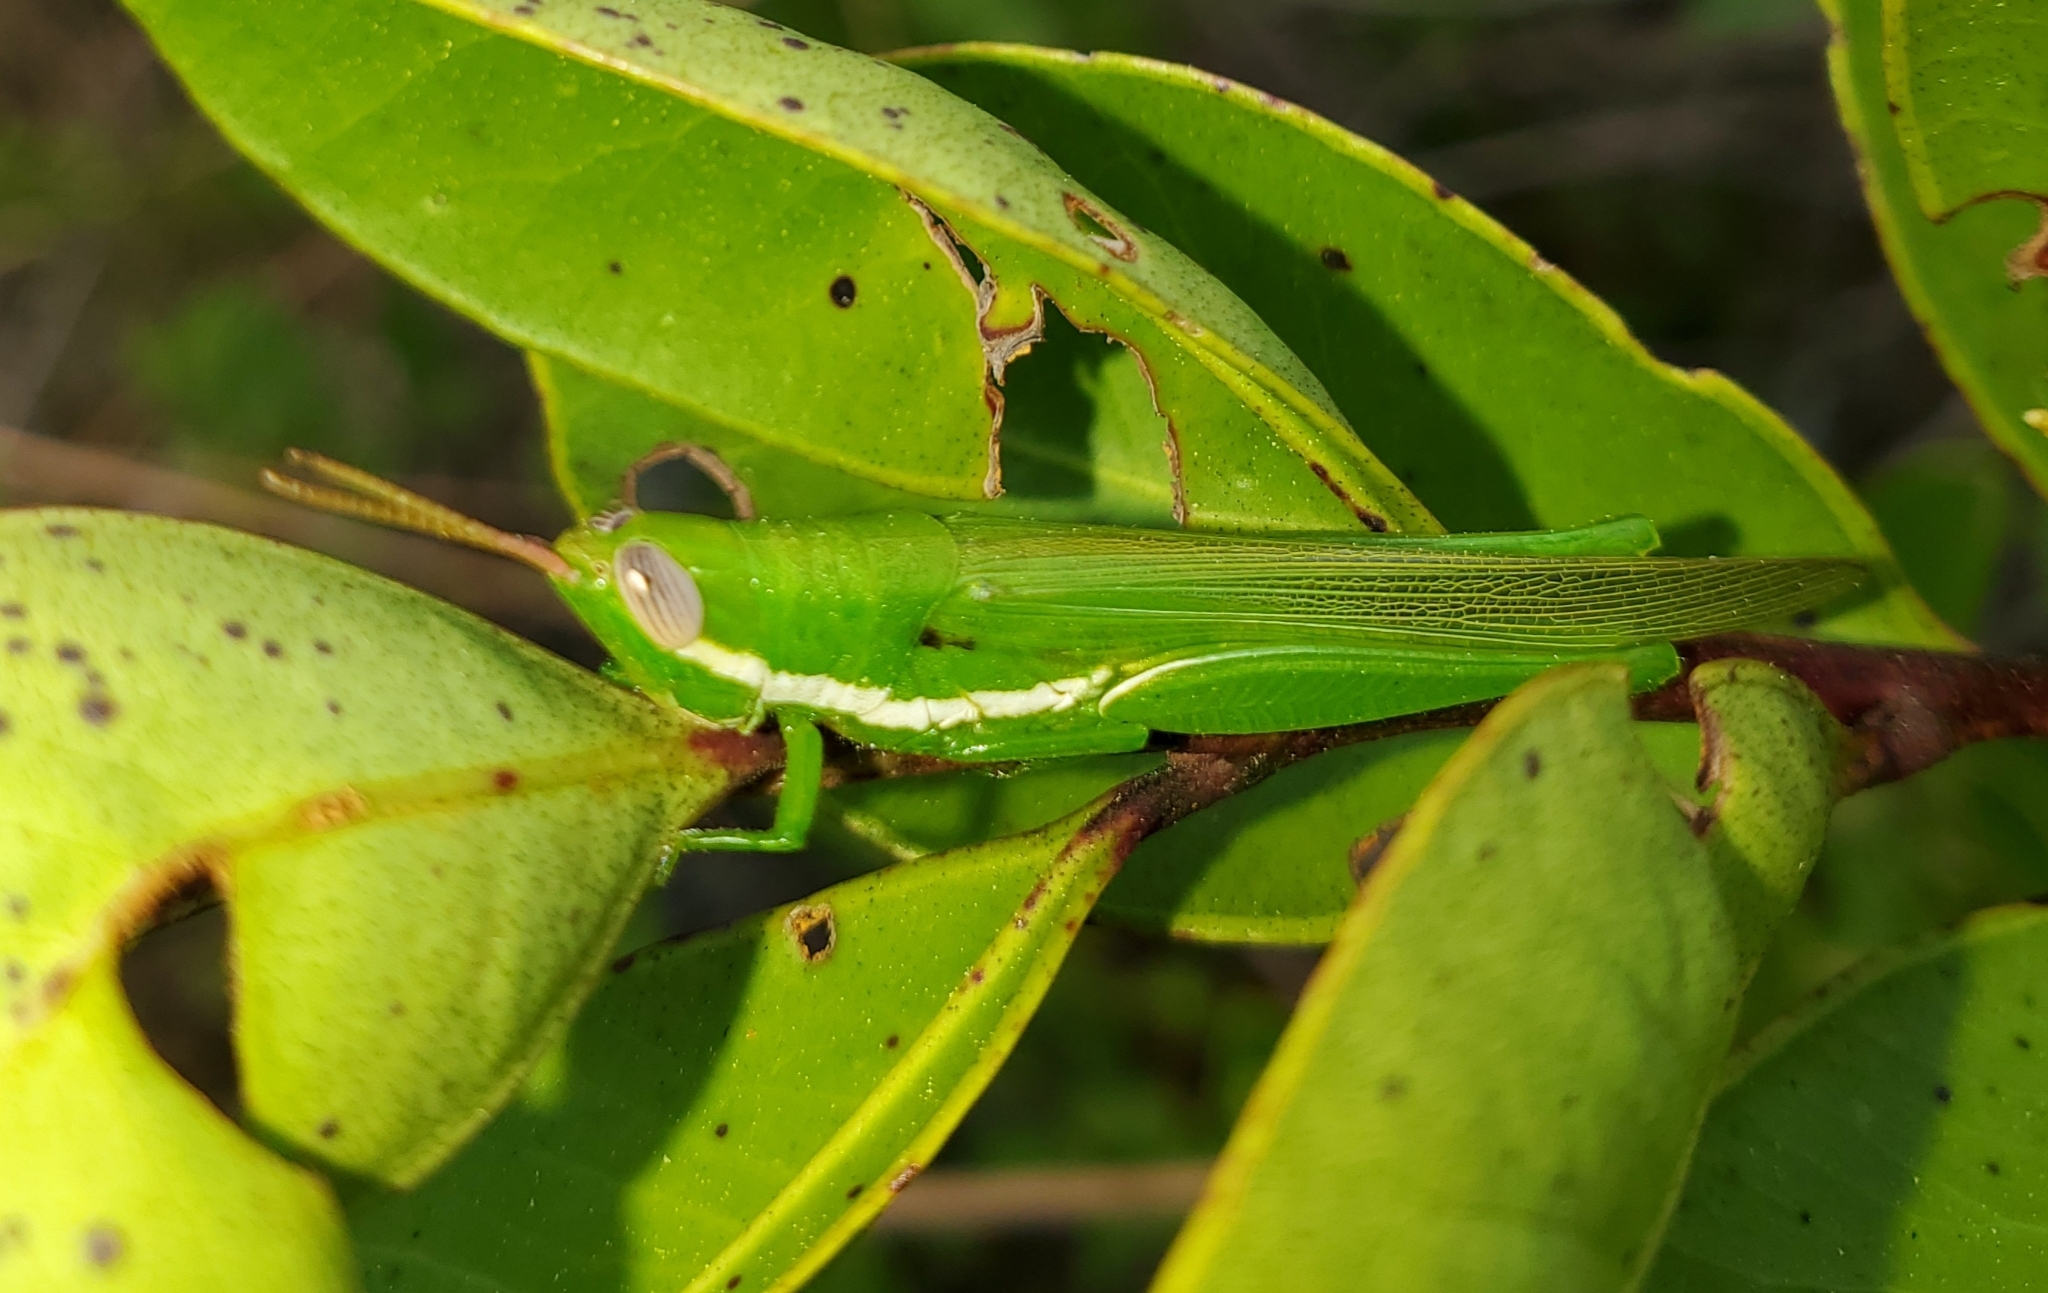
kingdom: Animalia
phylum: Arthropoda
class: Insecta
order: Orthoptera
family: Acrididae
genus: Stenacris
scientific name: Stenacris vitreipennis
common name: Glassy-winged toothpick grasshopper
